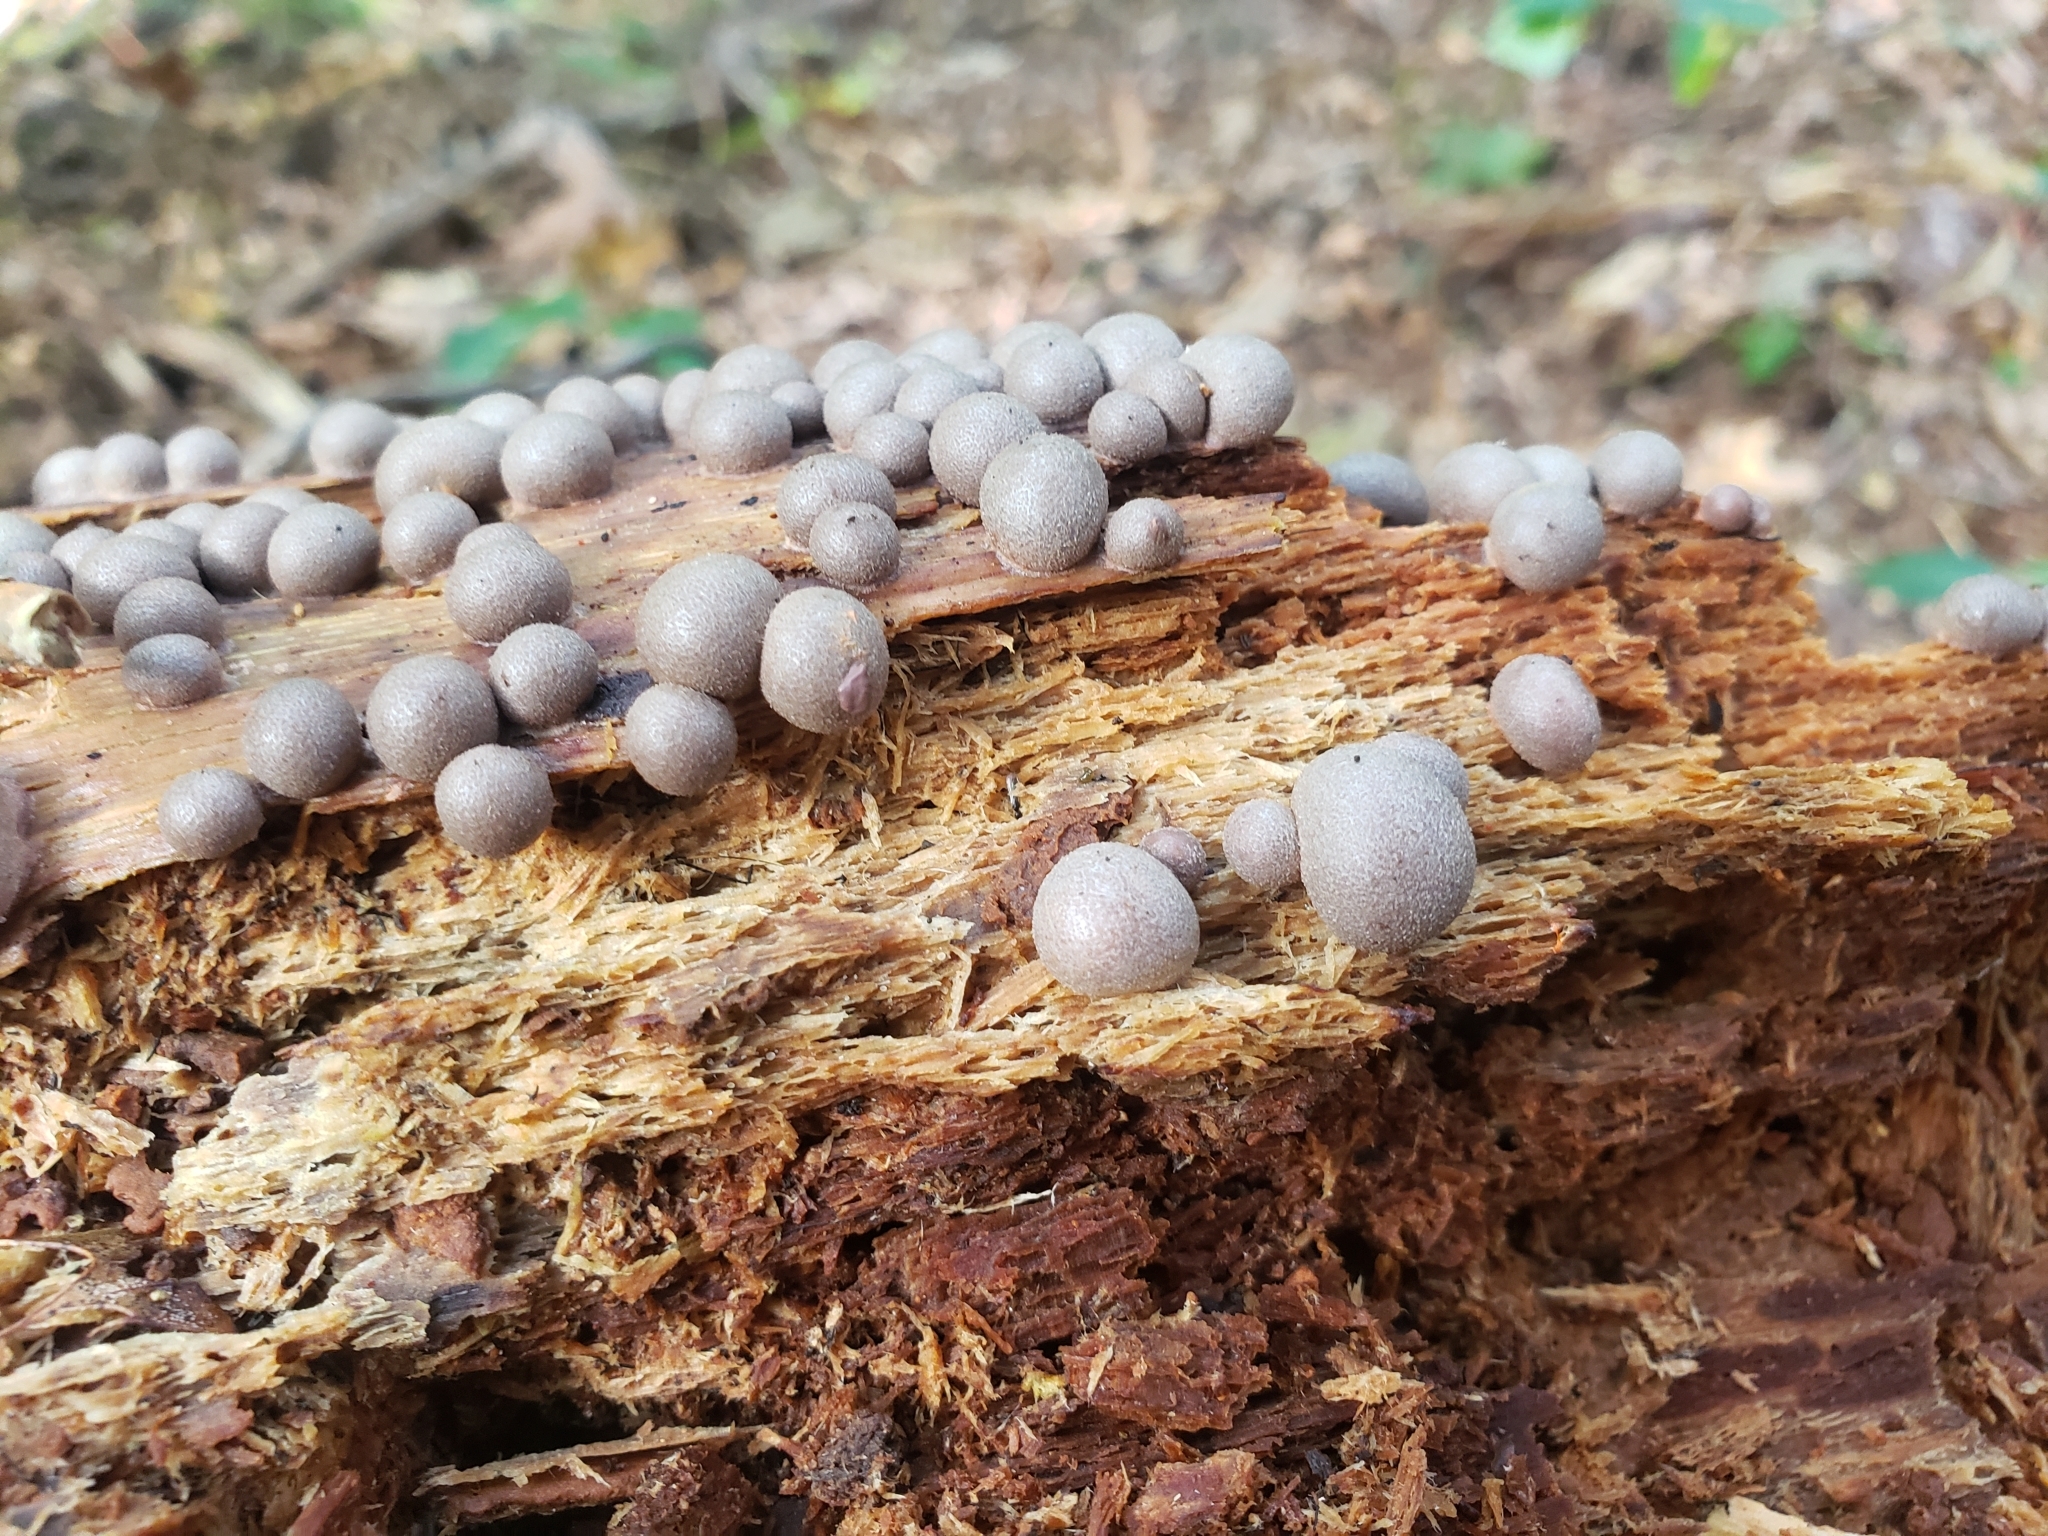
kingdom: Protozoa
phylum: Mycetozoa
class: Myxomycetes
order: Cribrariales
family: Tubiferaceae
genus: Lycogala
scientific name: Lycogala epidendrum
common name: Wolf's milk
